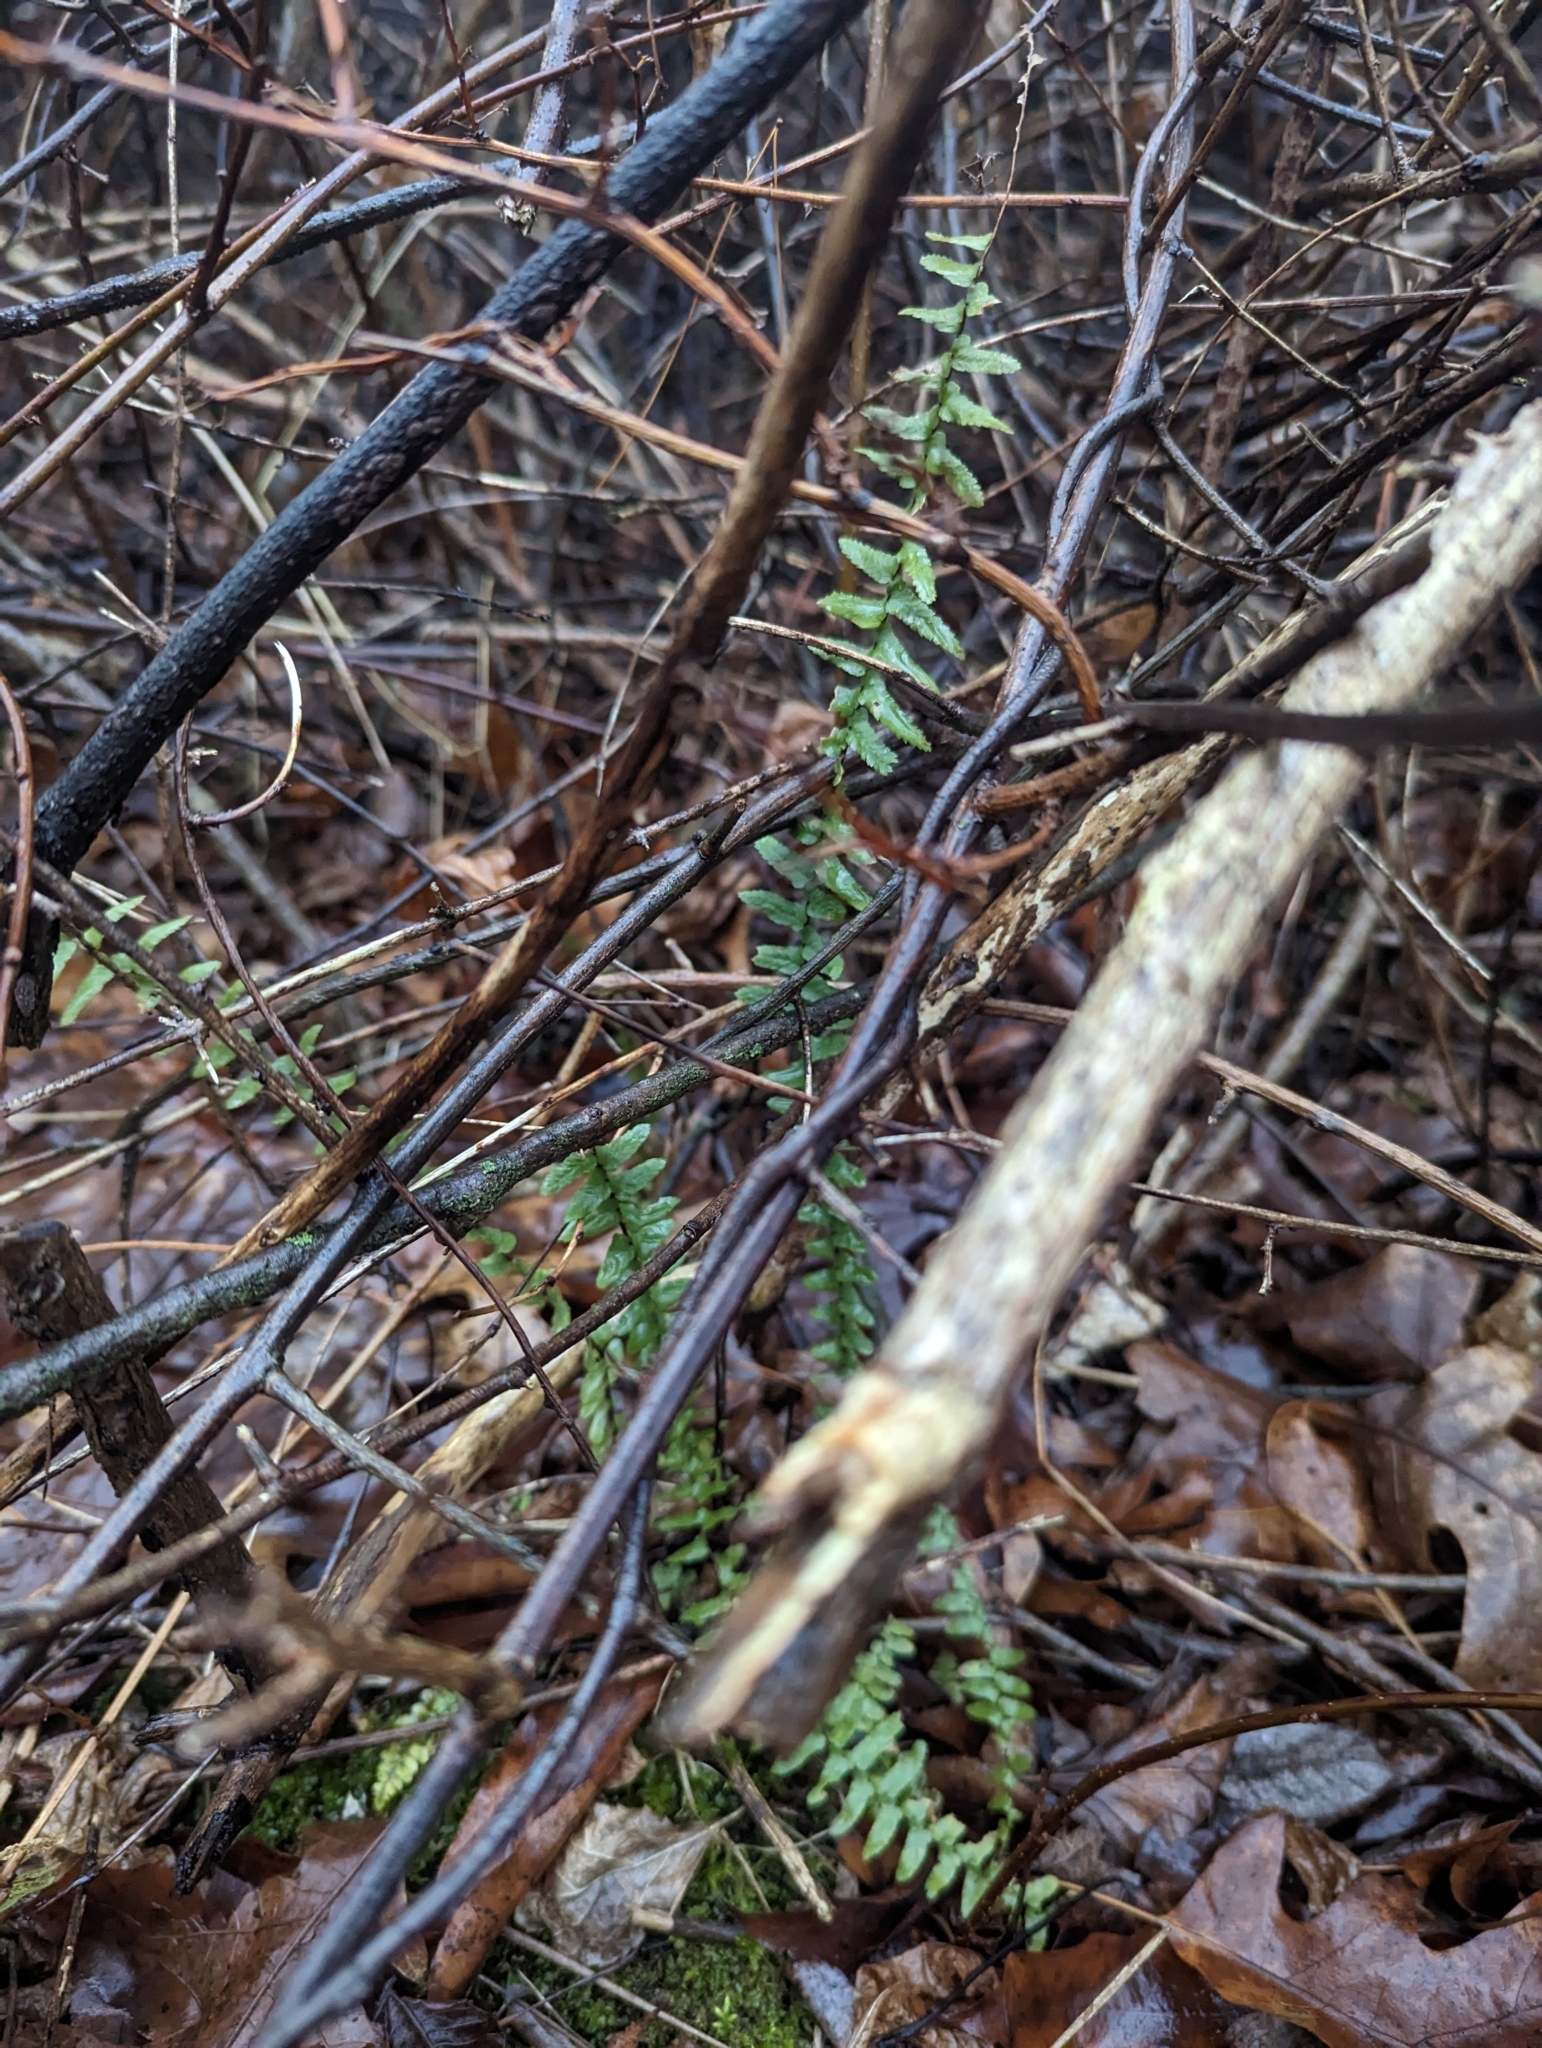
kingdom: Plantae
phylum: Tracheophyta
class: Polypodiopsida
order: Polypodiales
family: Aspleniaceae
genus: Asplenium
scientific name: Asplenium platyneuron
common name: Ebony spleenwort
